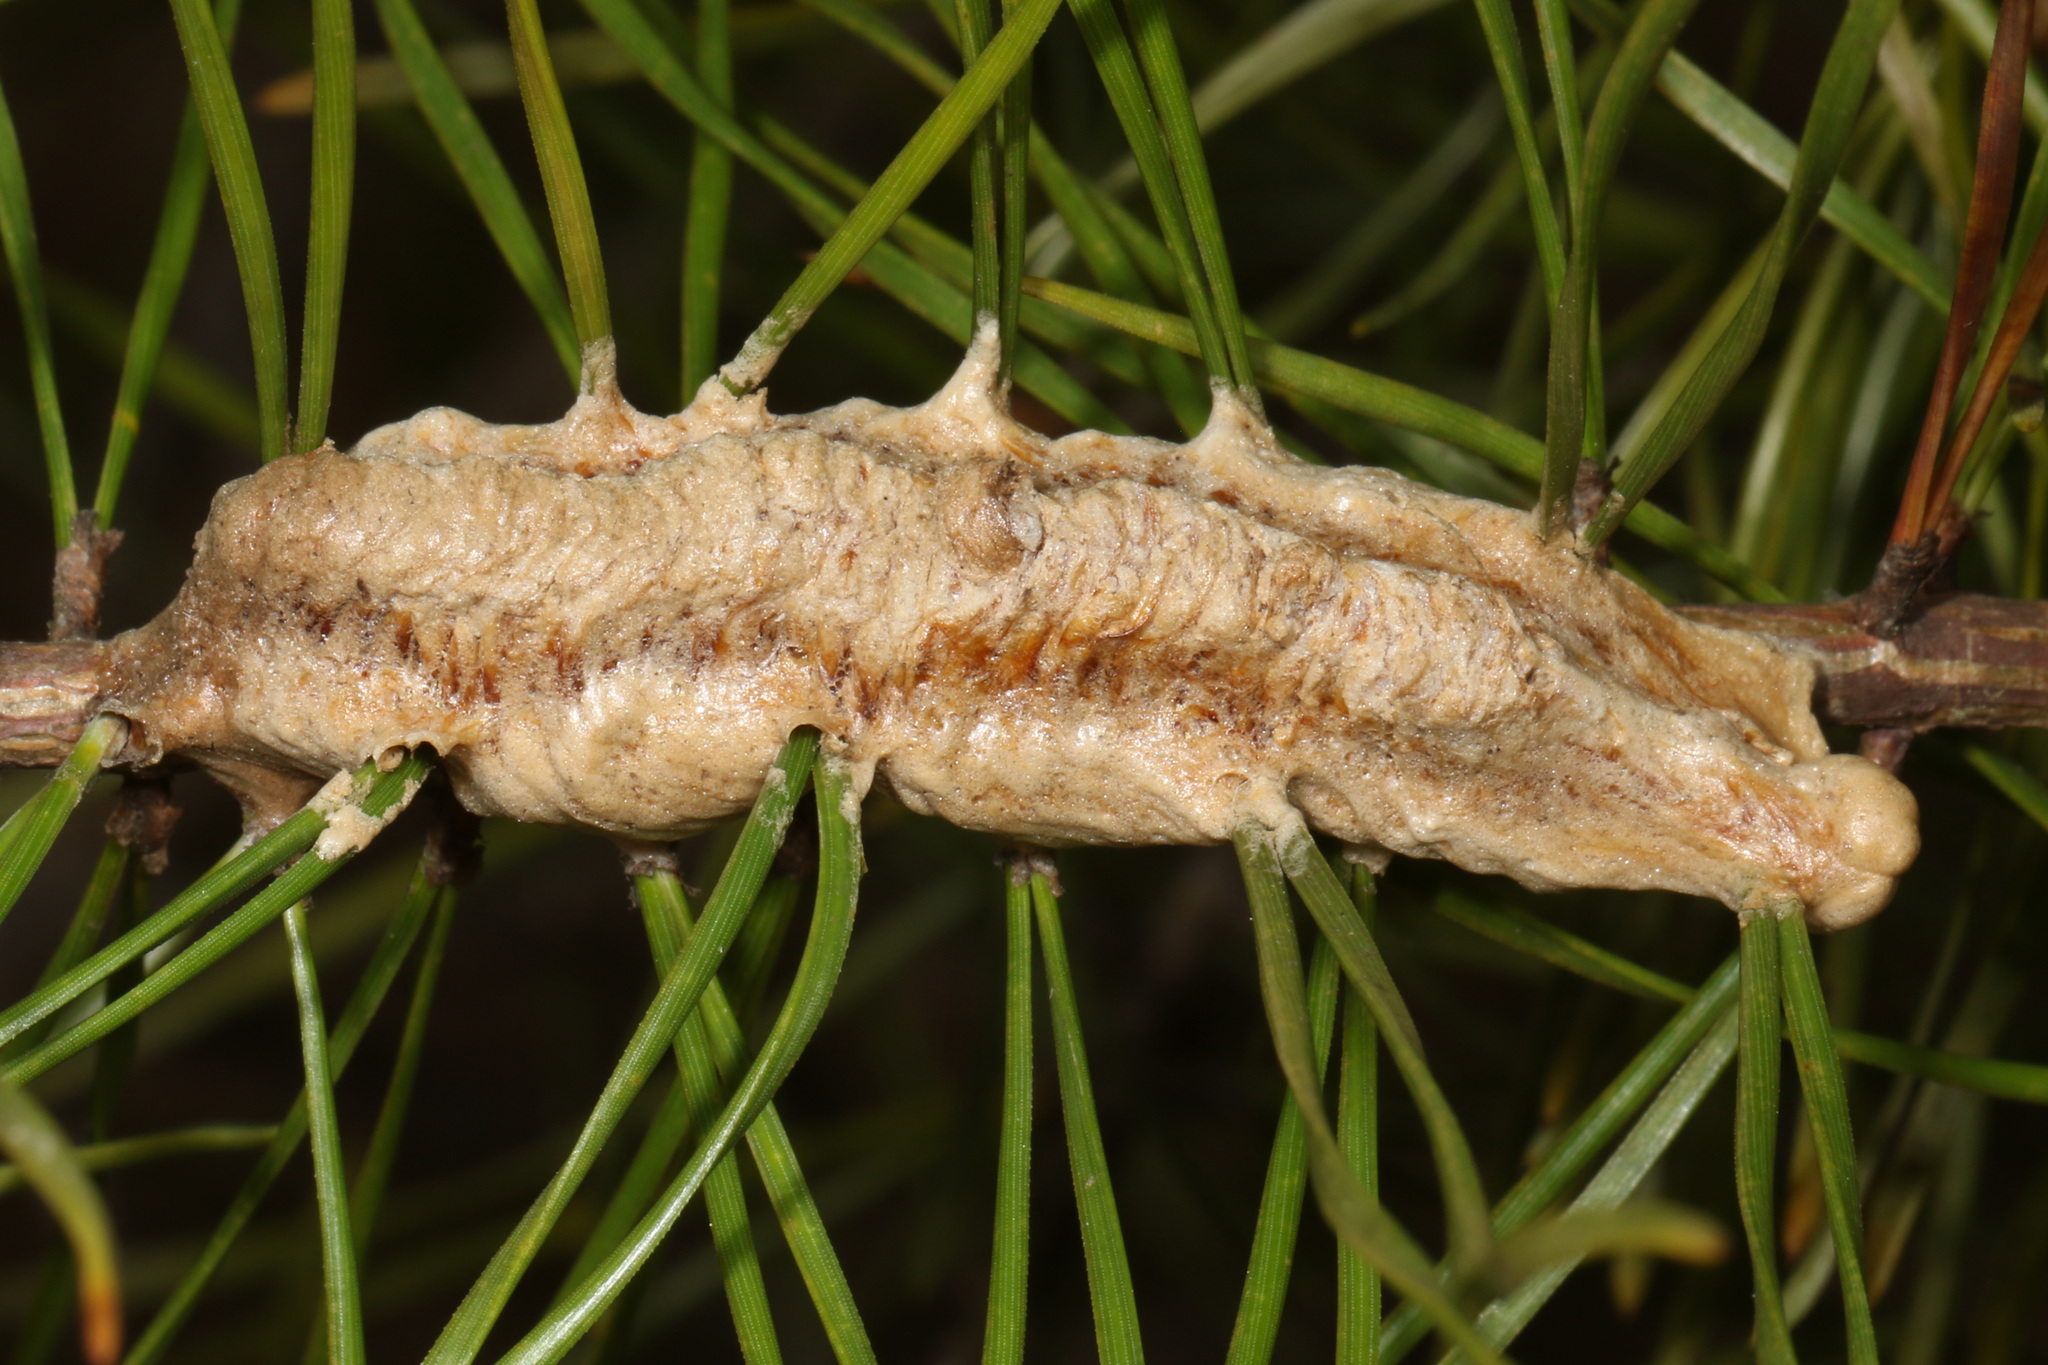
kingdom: Animalia
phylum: Arthropoda
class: Insecta
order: Mantodea
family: Mantidae
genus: Stagmomantis
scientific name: Stagmomantis carolina
